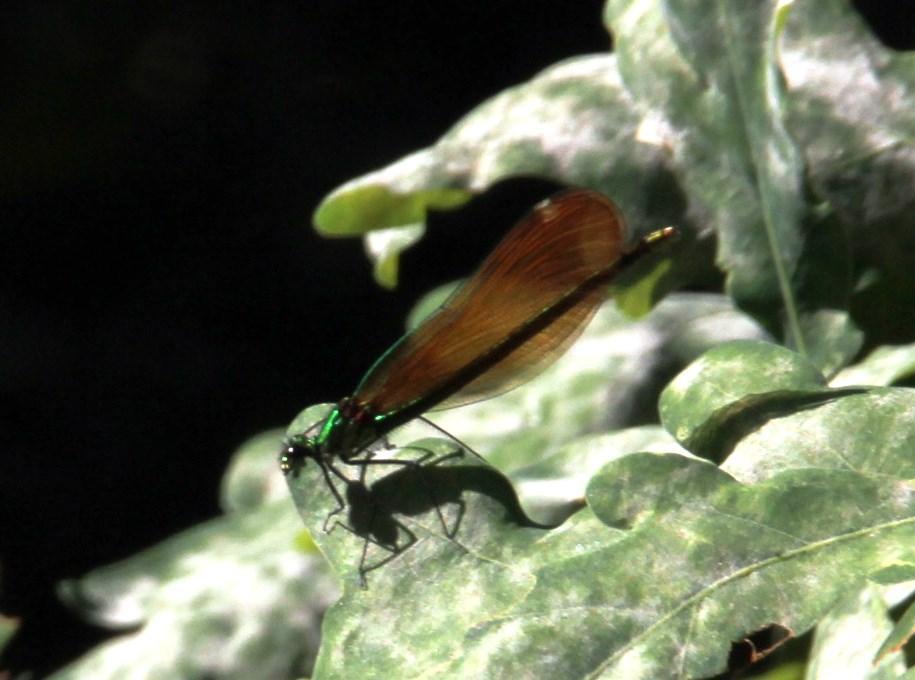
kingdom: Animalia
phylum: Arthropoda
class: Insecta
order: Odonata
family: Calopterygidae
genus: Calopteryx
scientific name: Calopteryx virgo
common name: Beautiful demoiselle
